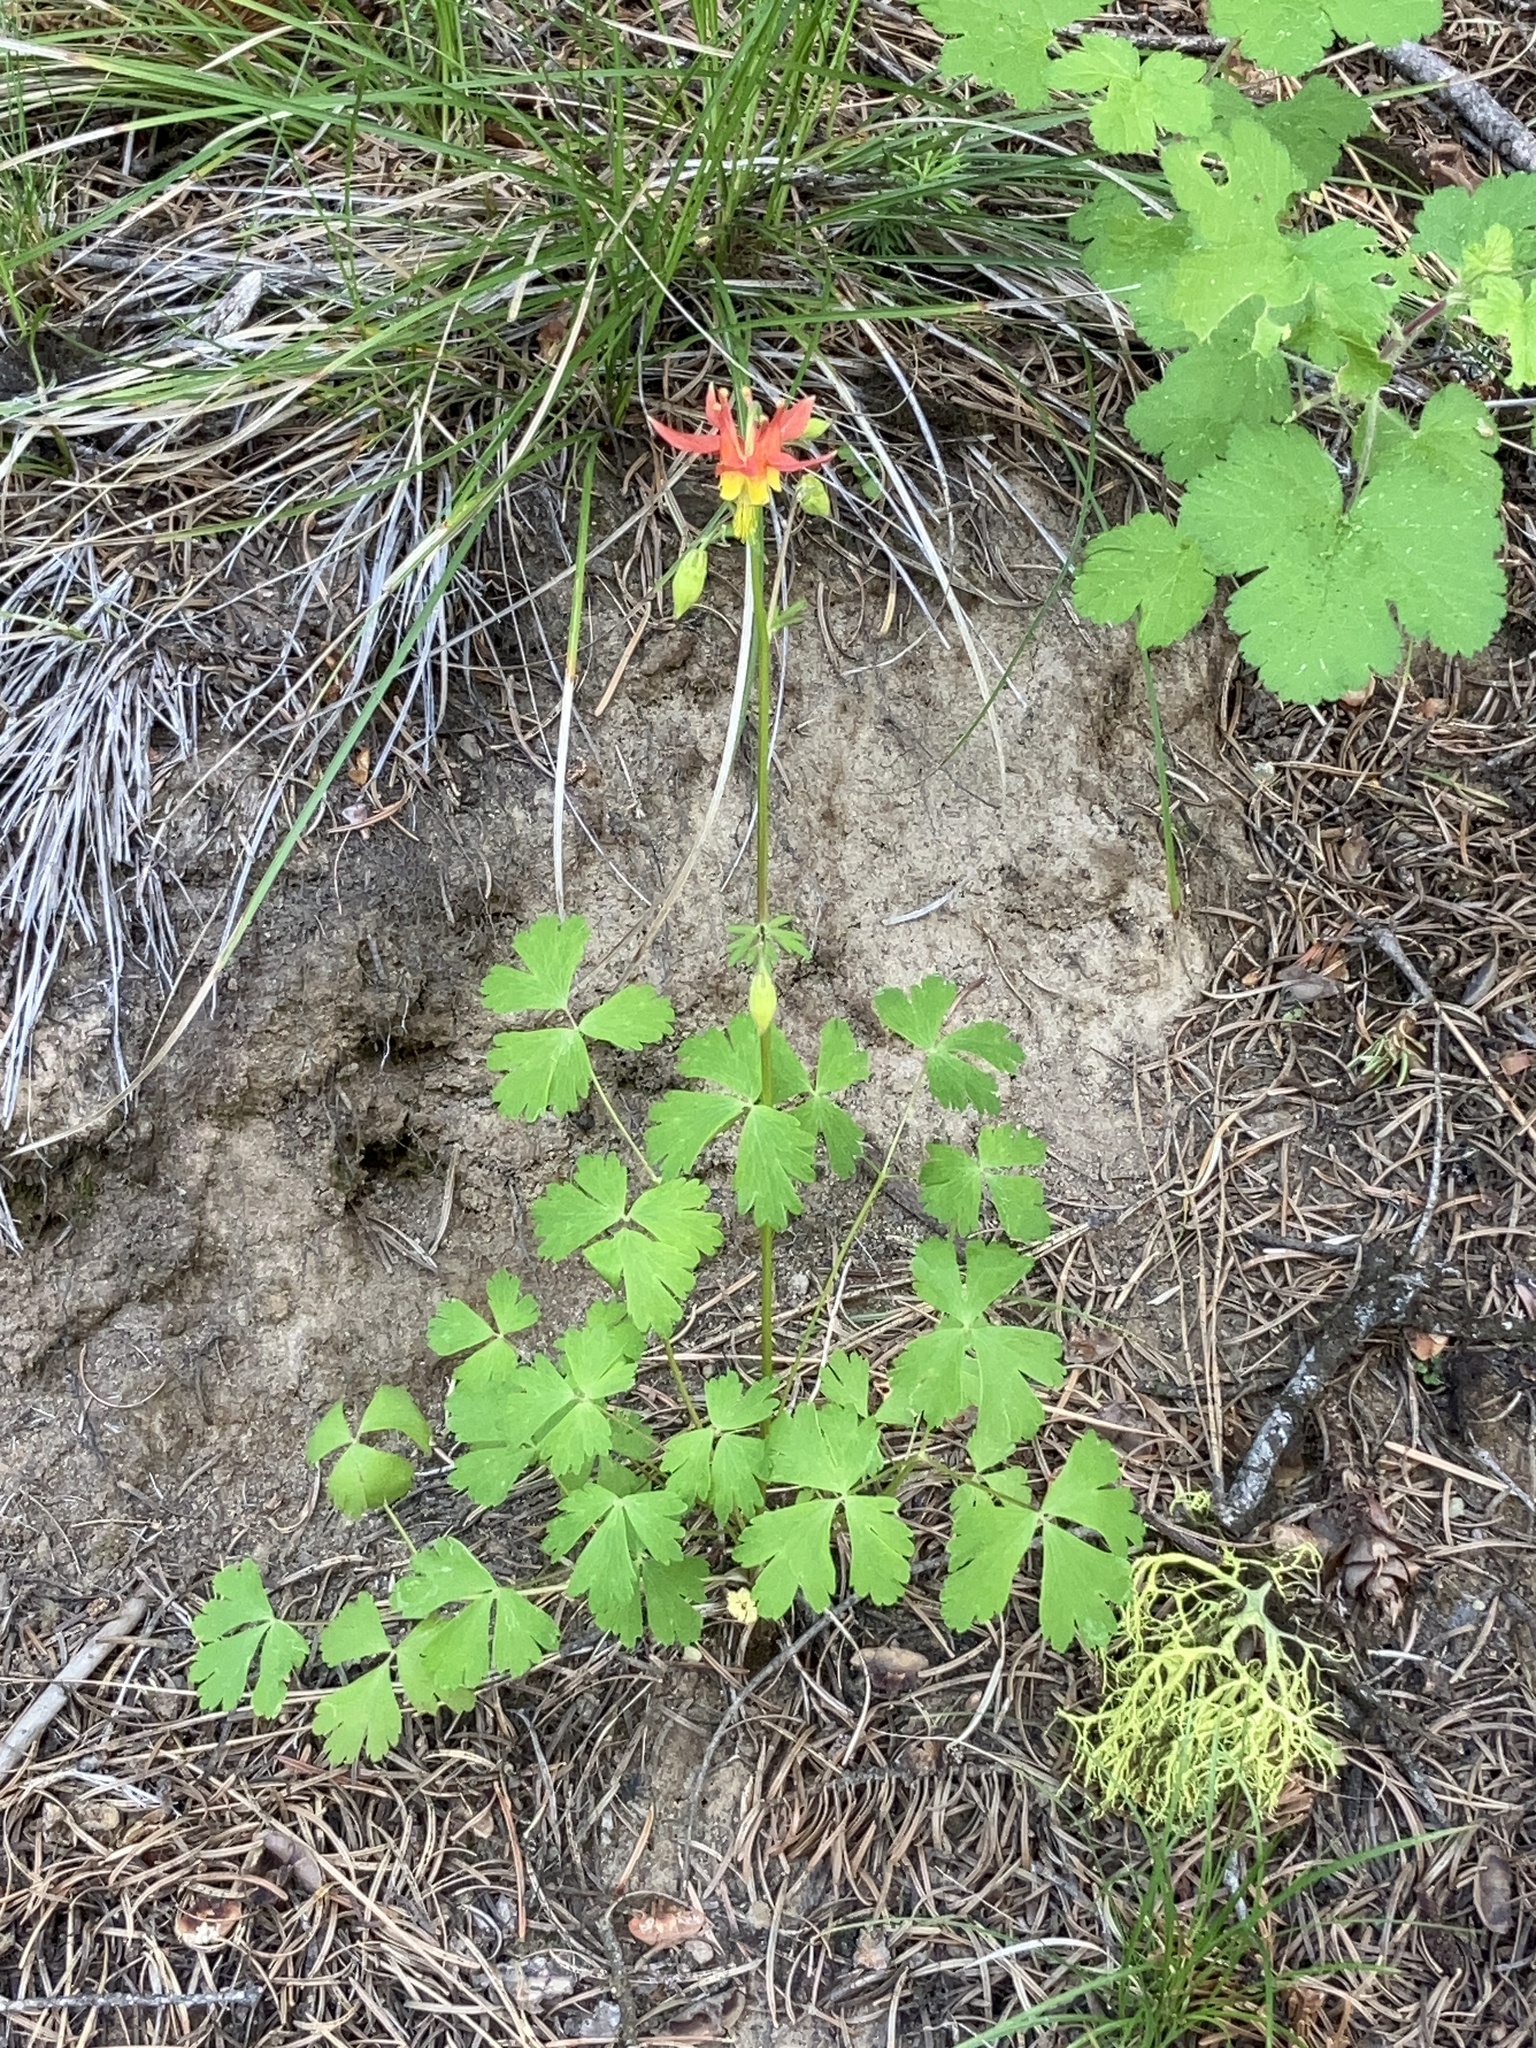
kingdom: Plantae
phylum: Tracheophyta
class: Magnoliopsida
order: Ranunculales
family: Ranunculaceae
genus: Aquilegia
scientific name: Aquilegia formosa
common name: Sitka columbine
